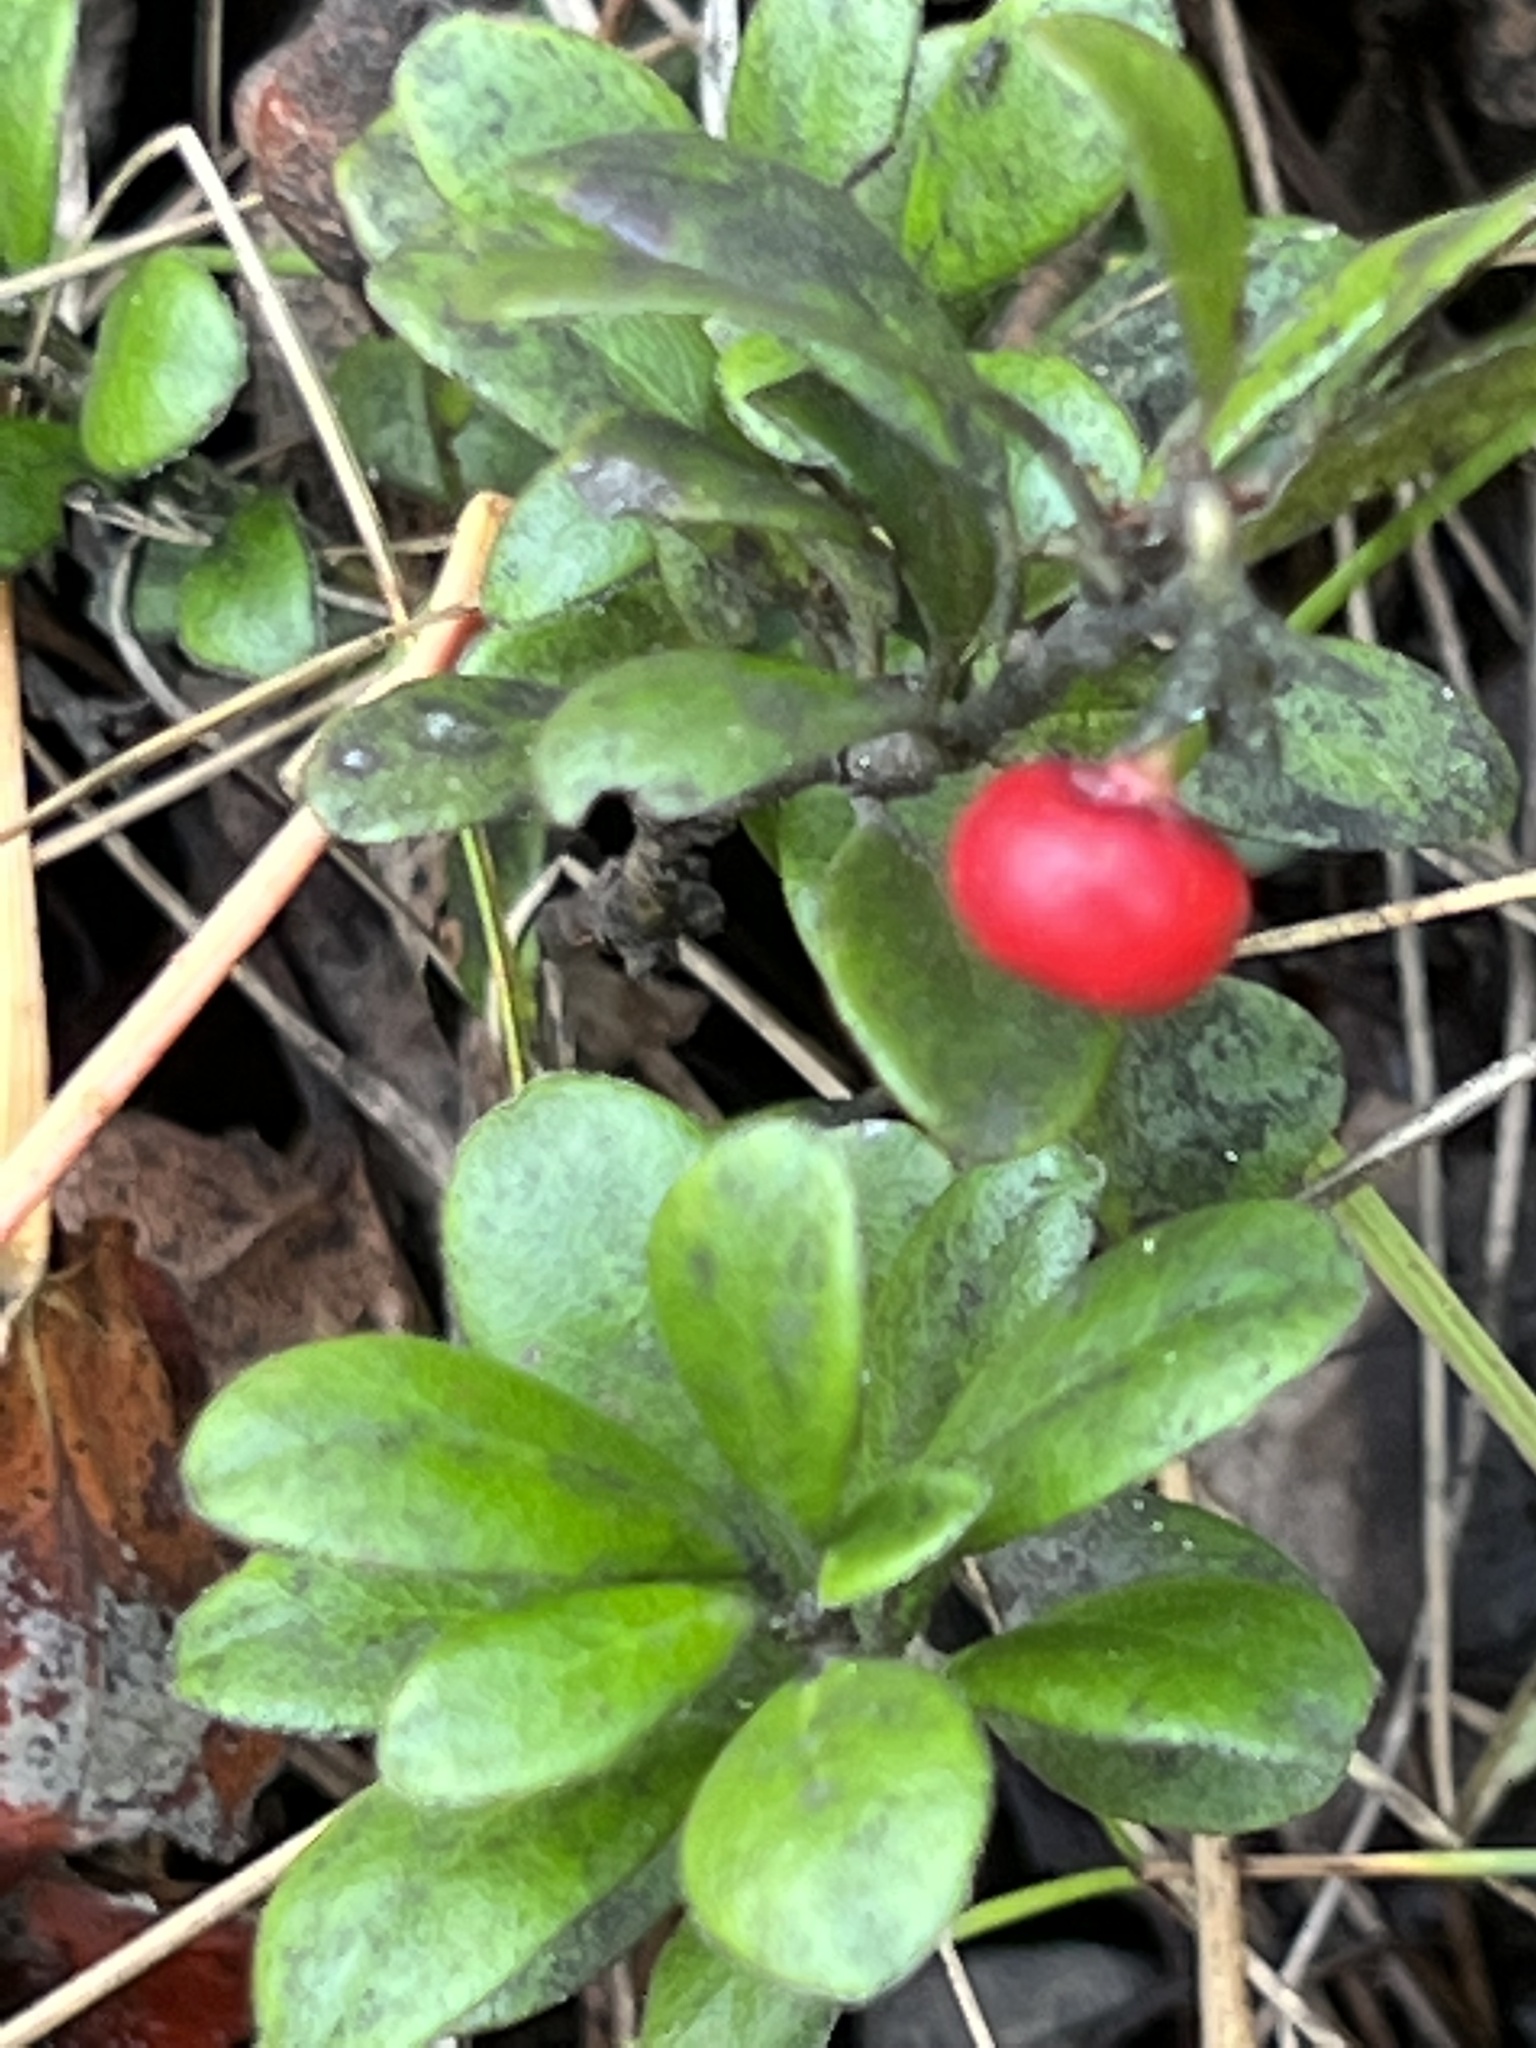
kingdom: Plantae
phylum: Tracheophyta
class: Magnoliopsida
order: Ericales
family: Ericaceae
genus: Arctostaphylos
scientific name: Arctostaphylos uva-ursi
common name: Bearberry
